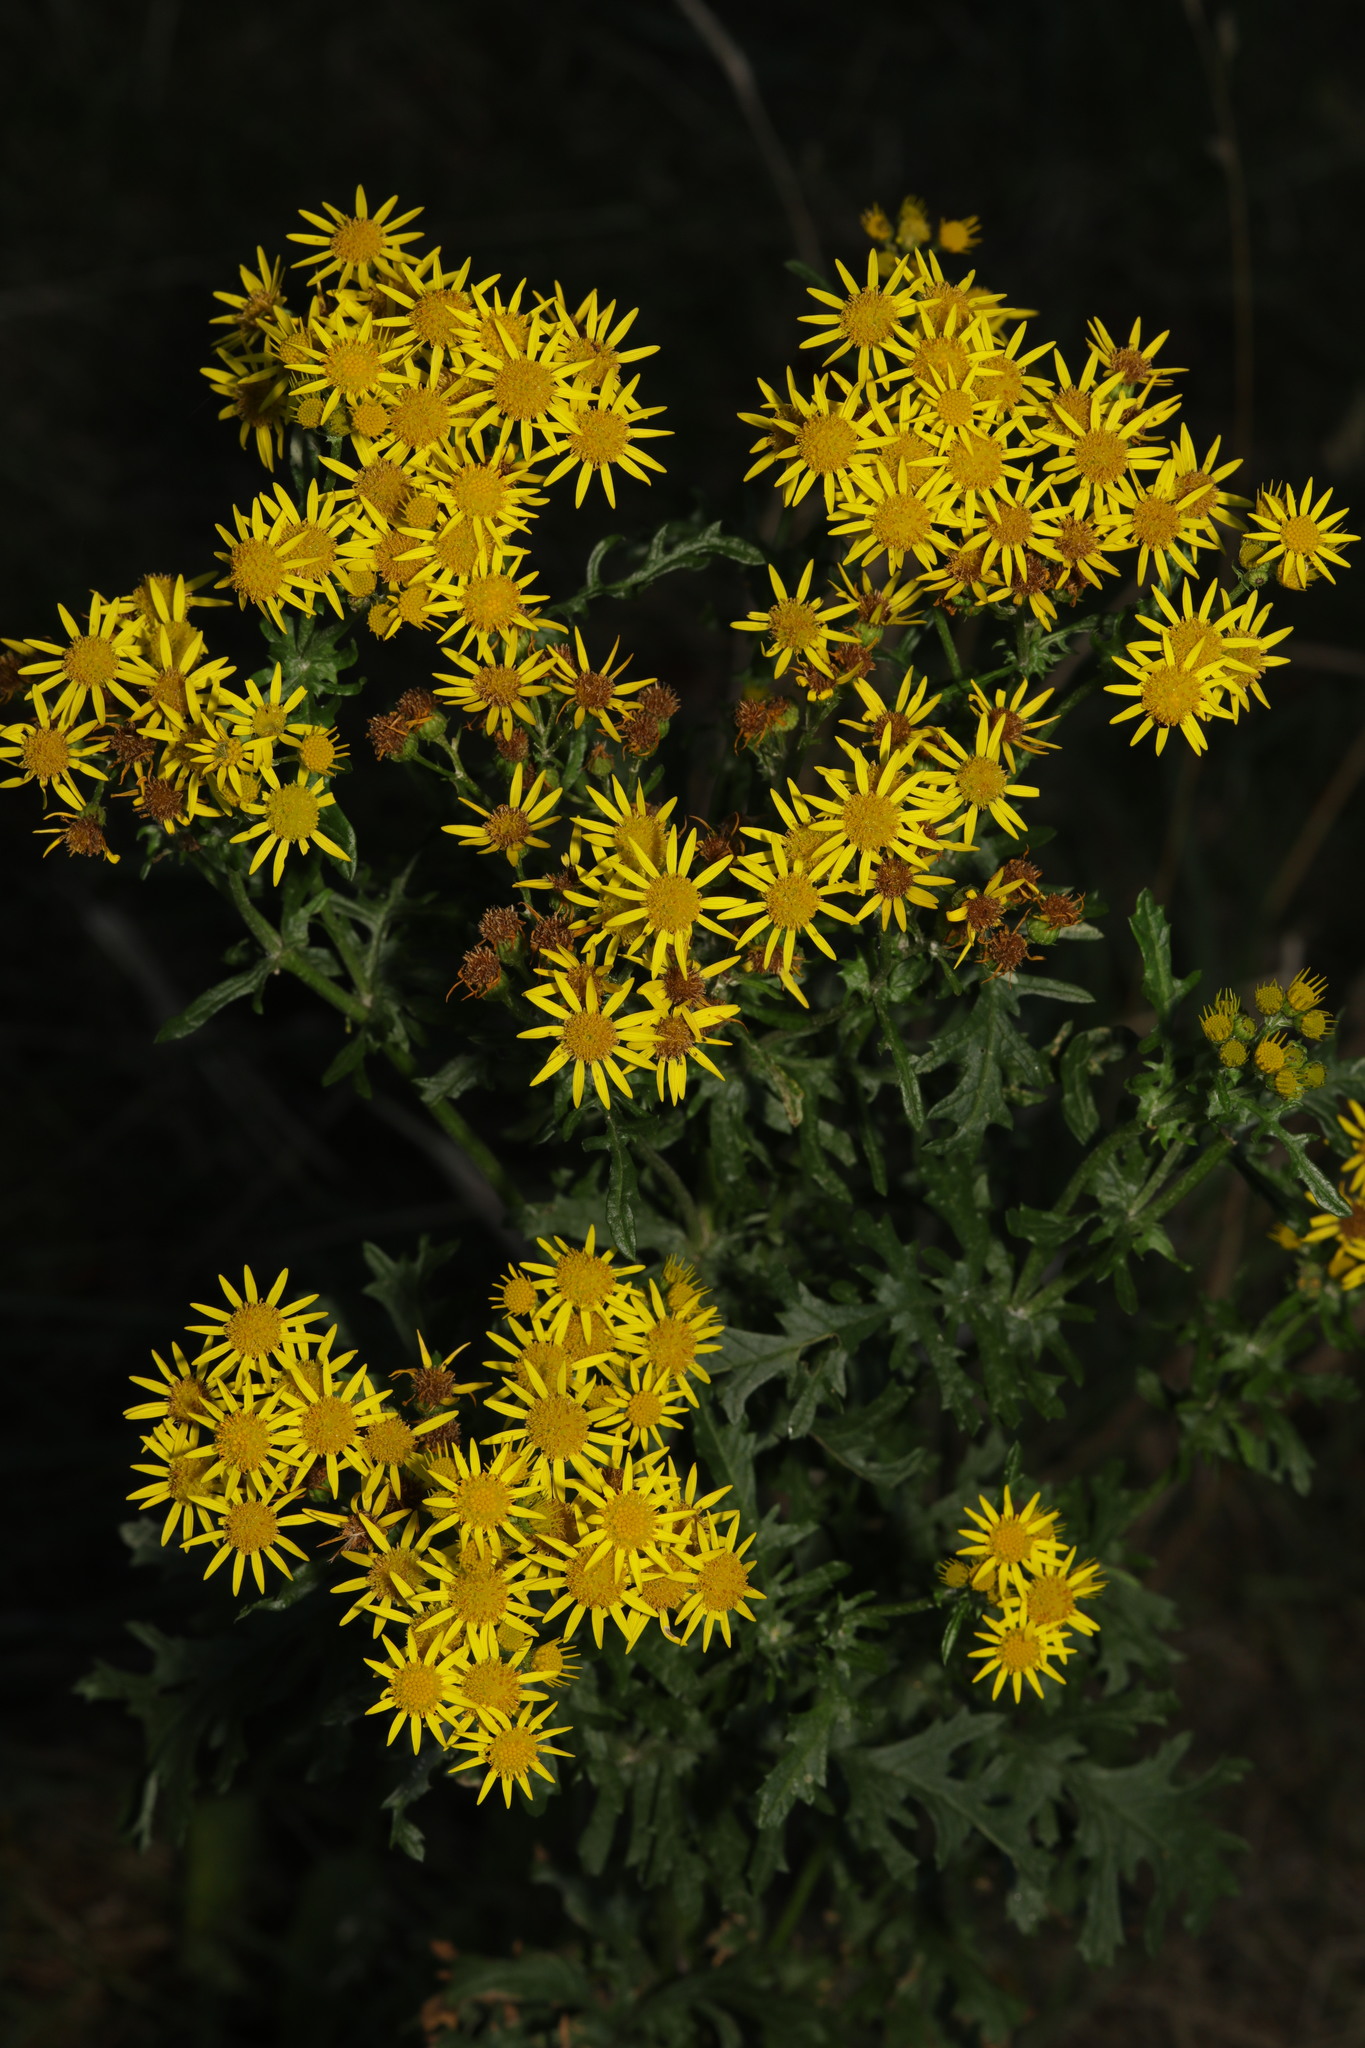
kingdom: Plantae
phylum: Tracheophyta
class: Magnoliopsida
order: Asterales
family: Asteraceae
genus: Jacobaea
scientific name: Jacobaea vulgaris
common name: Stinking willie
